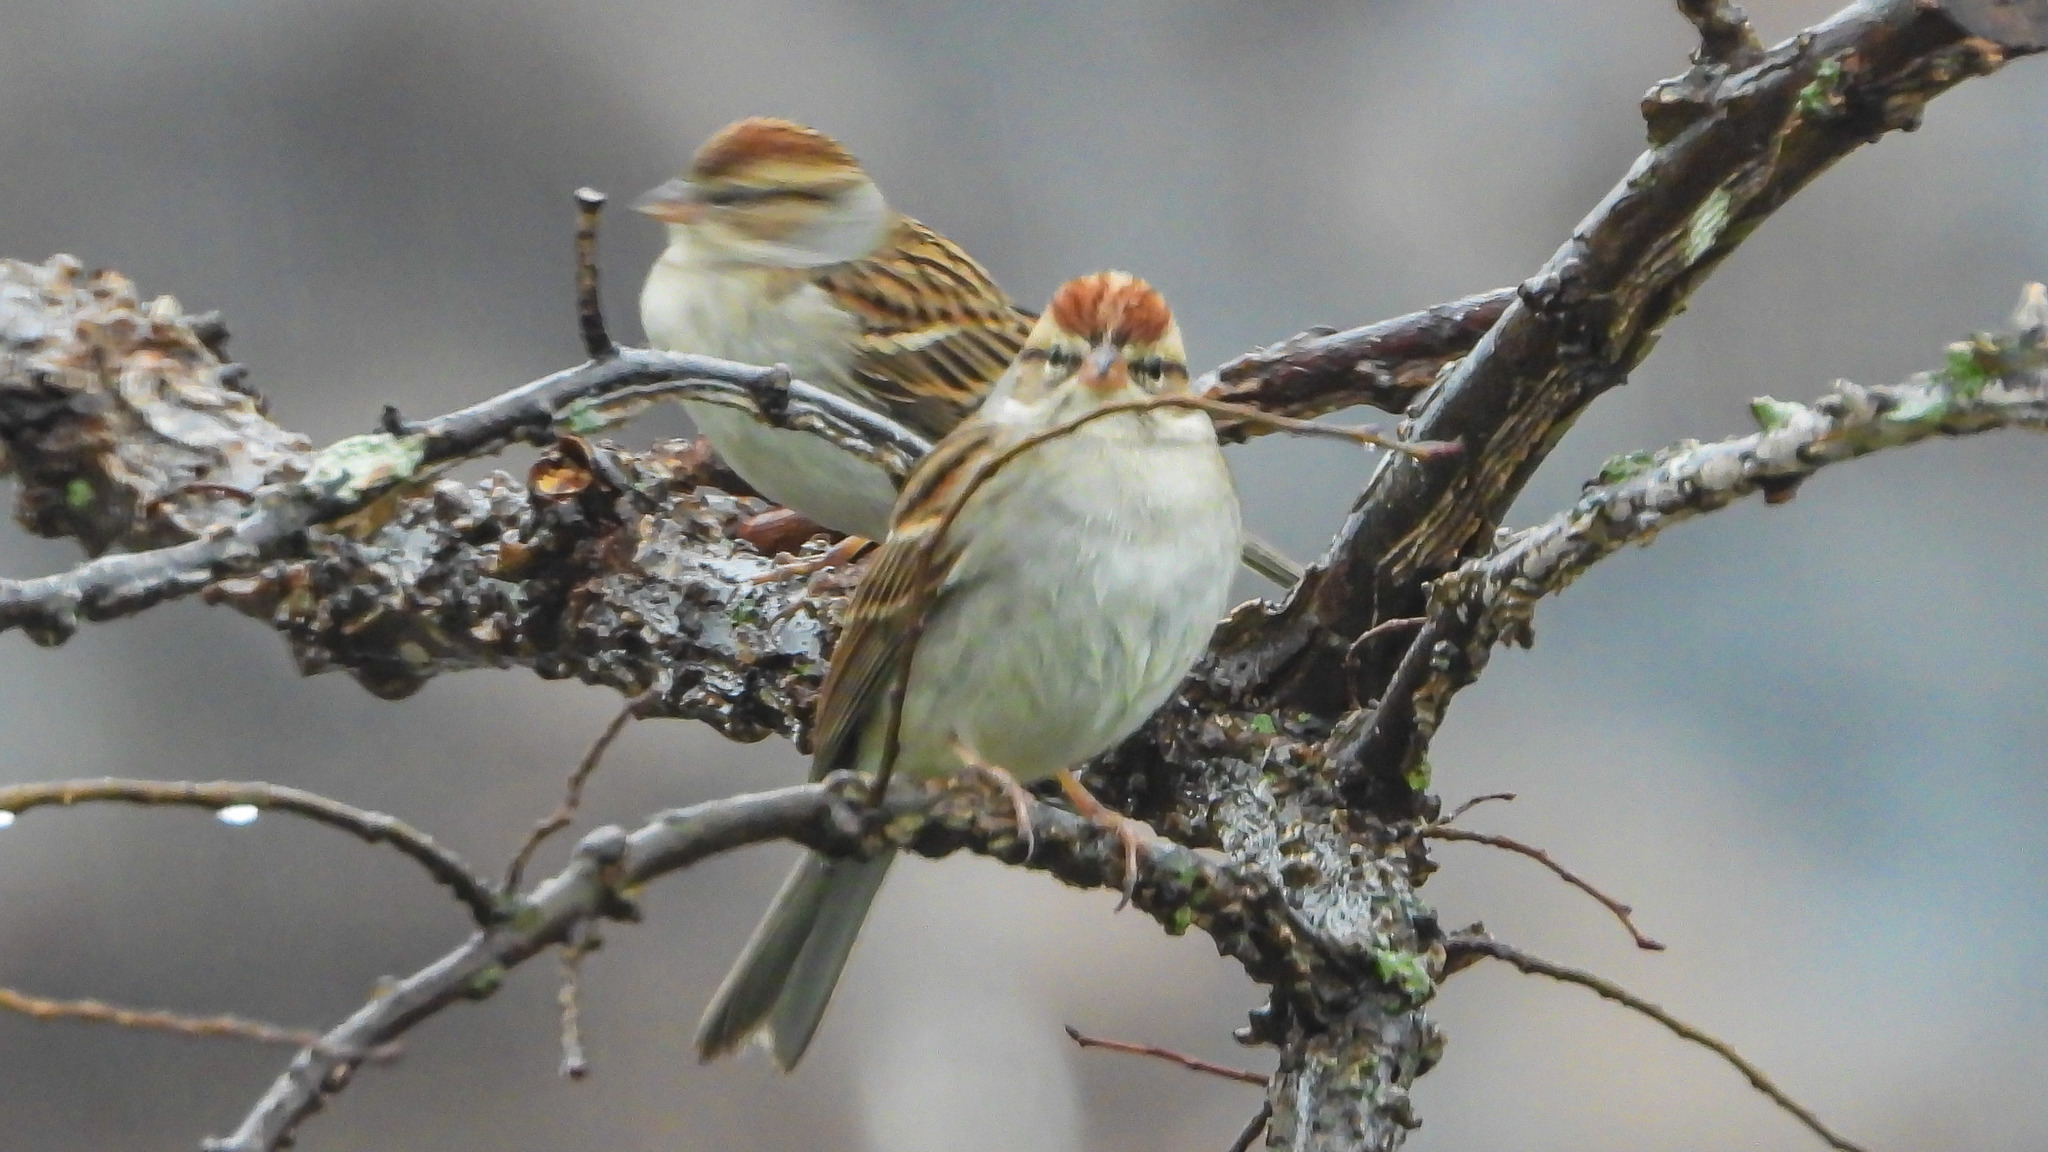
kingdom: Animalia
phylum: Chordata
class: Aves
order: Passeriformes
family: Passerellidae
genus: Spizella
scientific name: Spizella passerina
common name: Chipping sparrow
